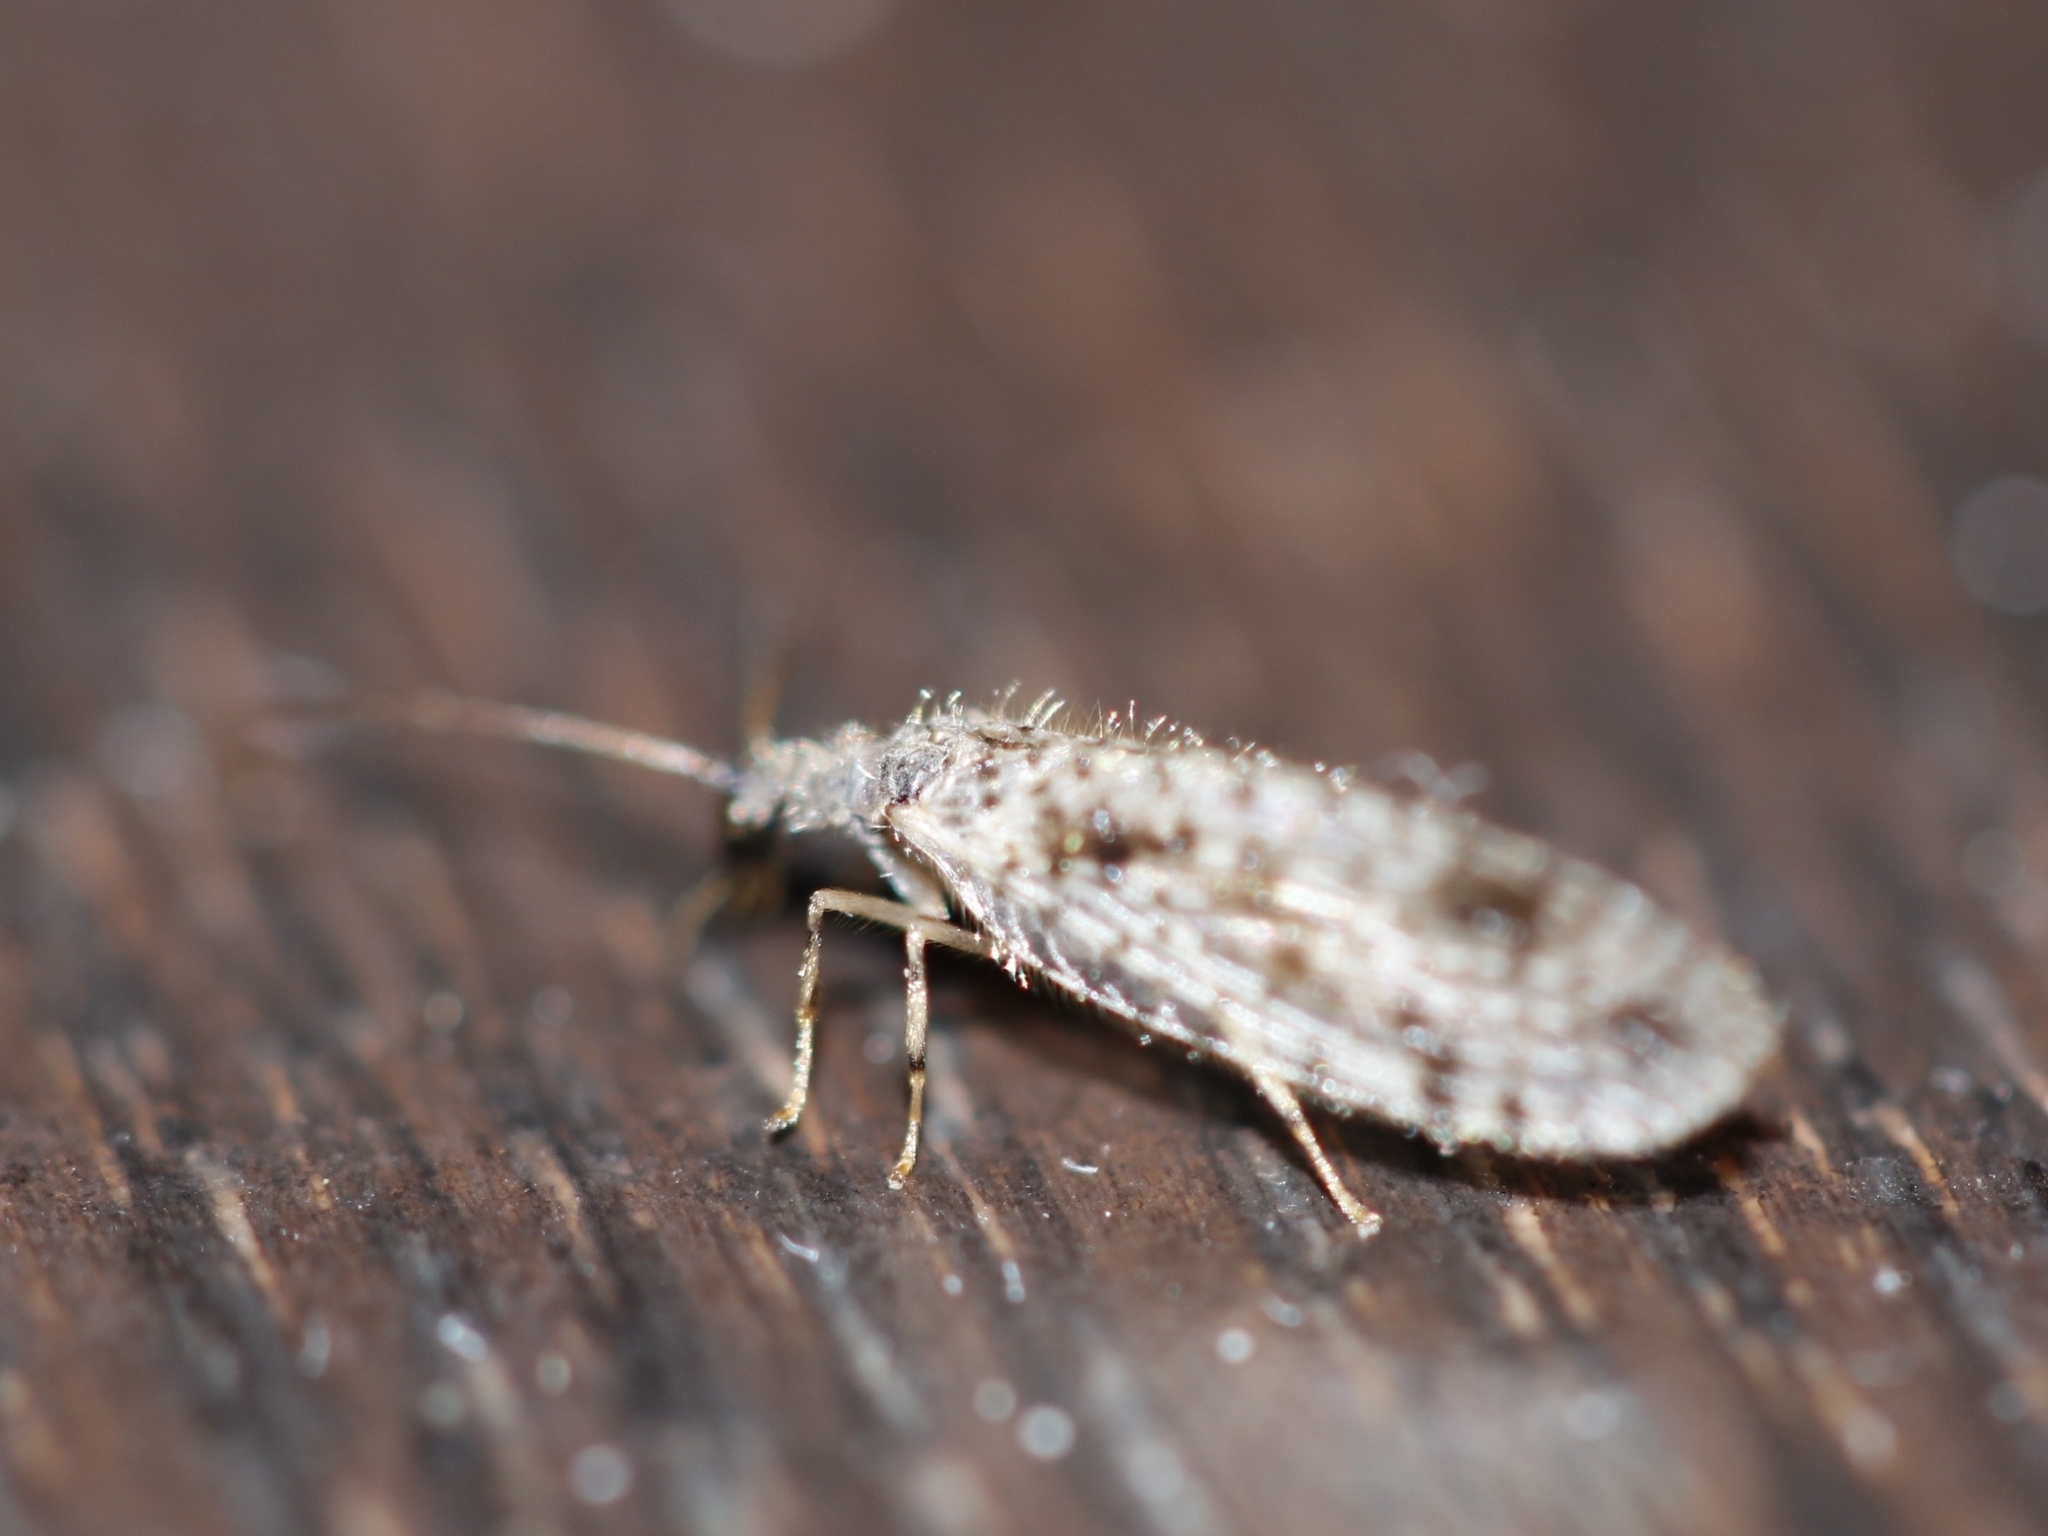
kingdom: Animalia
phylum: Arthropoda
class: Insecta
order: Neuroptera
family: Hemerobiidae
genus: Micromus
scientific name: Micromus variegatus
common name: Brown lacewing
